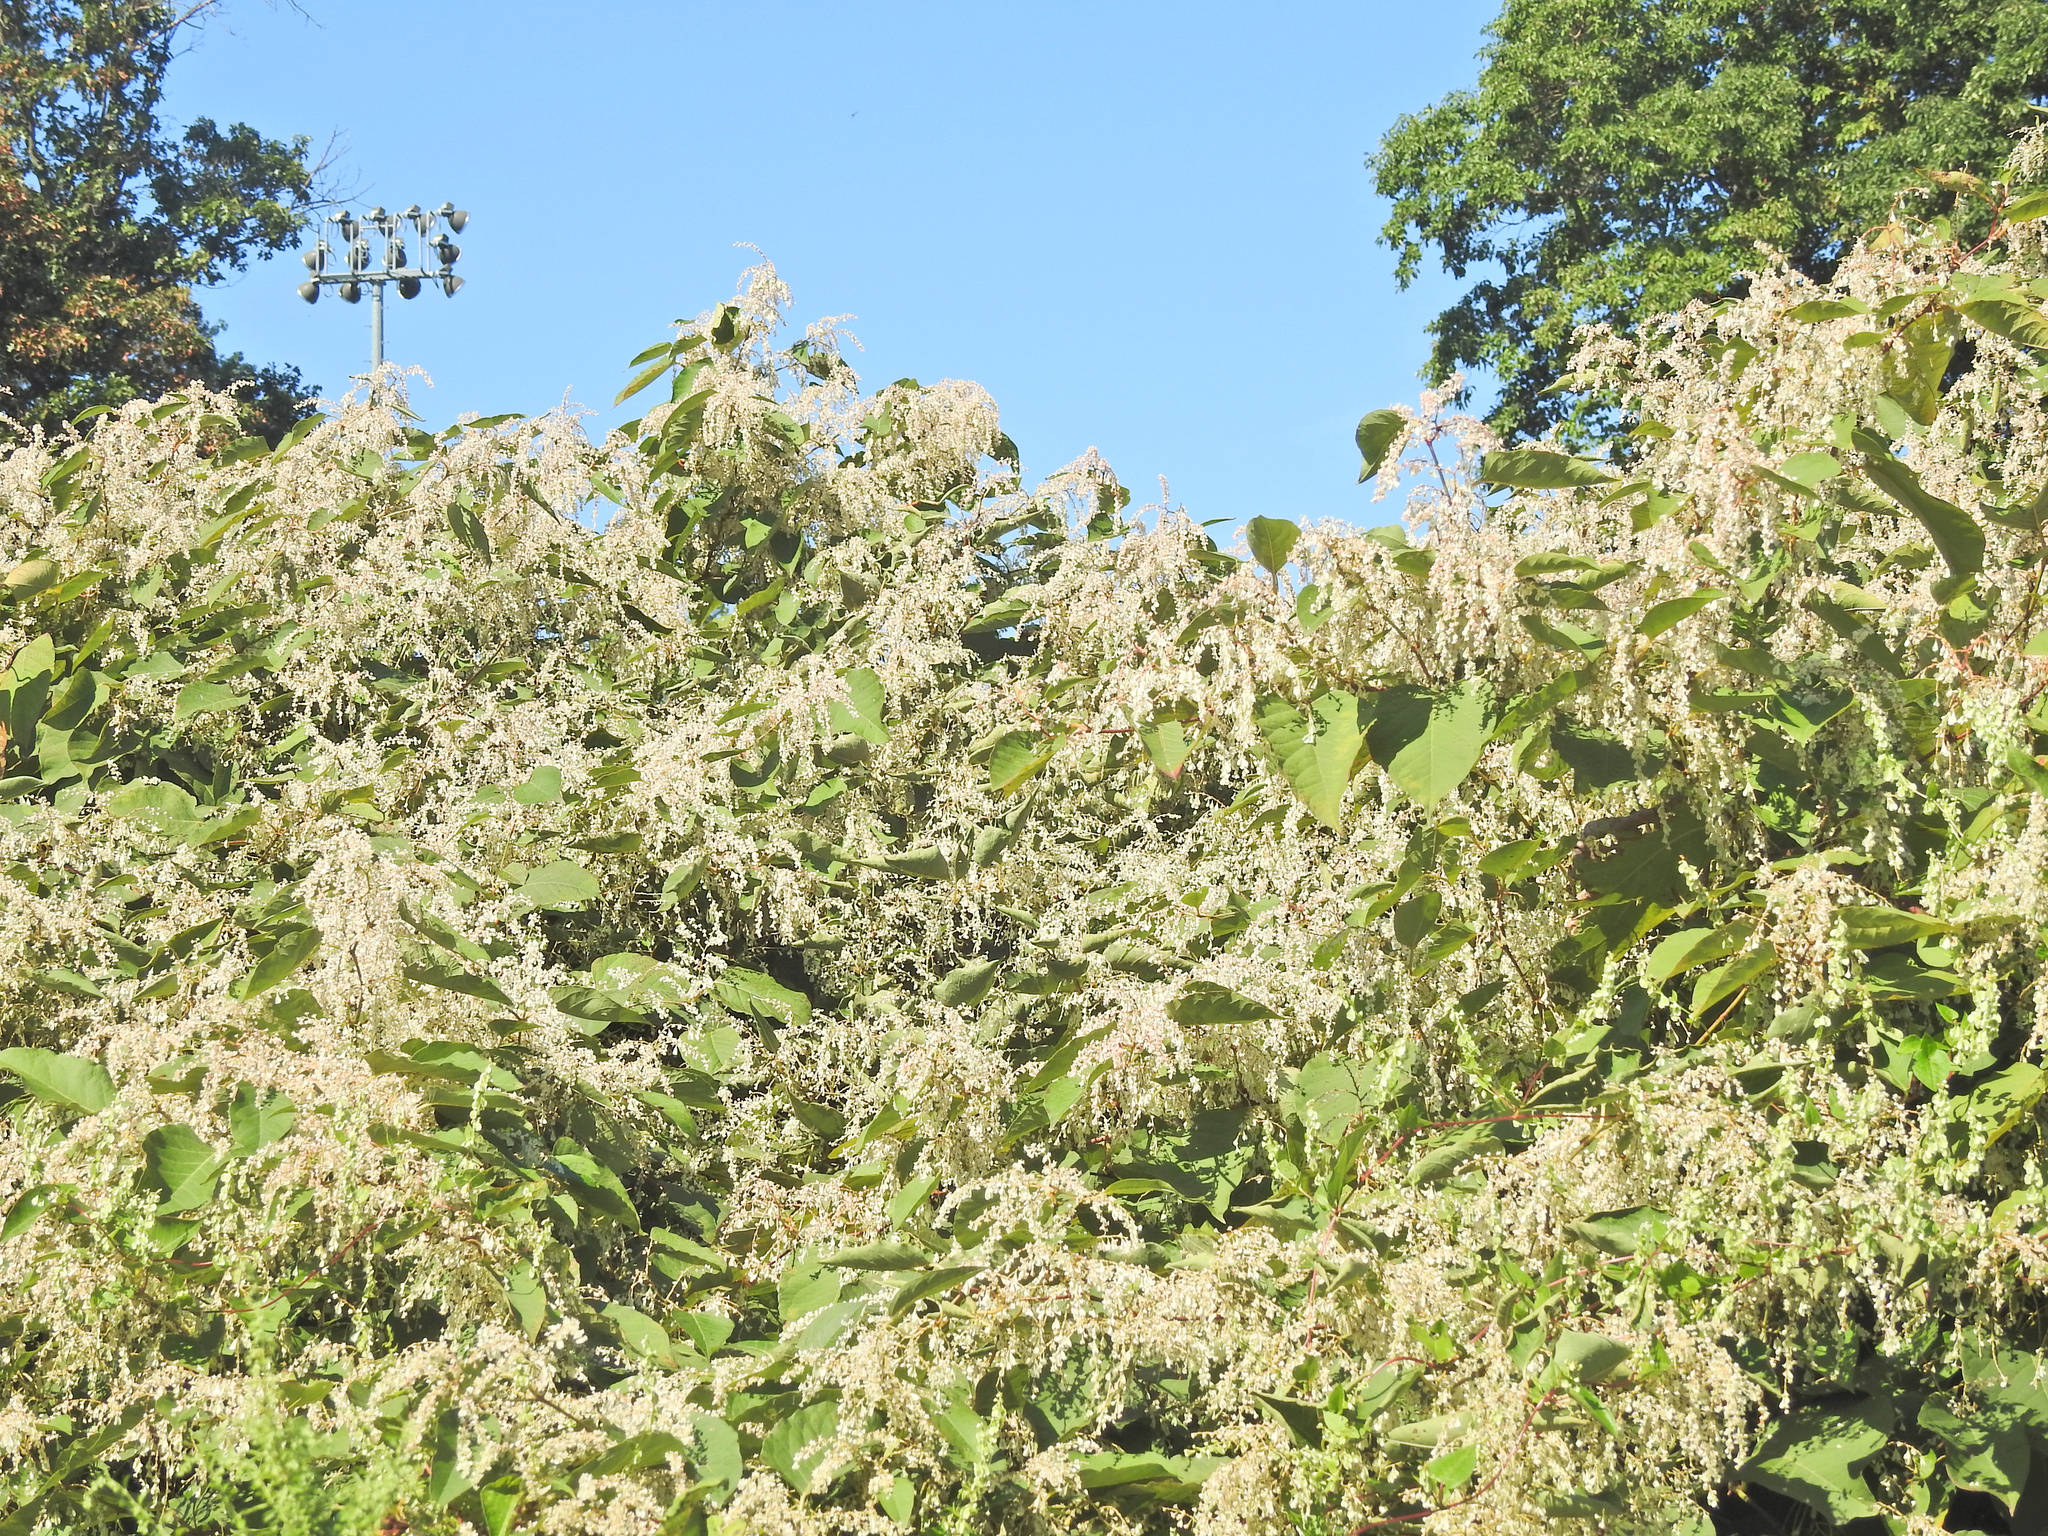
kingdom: Plantae
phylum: Tracheophyta
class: Magnoliopsida
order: Caryophyllales
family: Polygonaceae
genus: Reynoutria
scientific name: Reynoutria japonica
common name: Japanese knotweed
